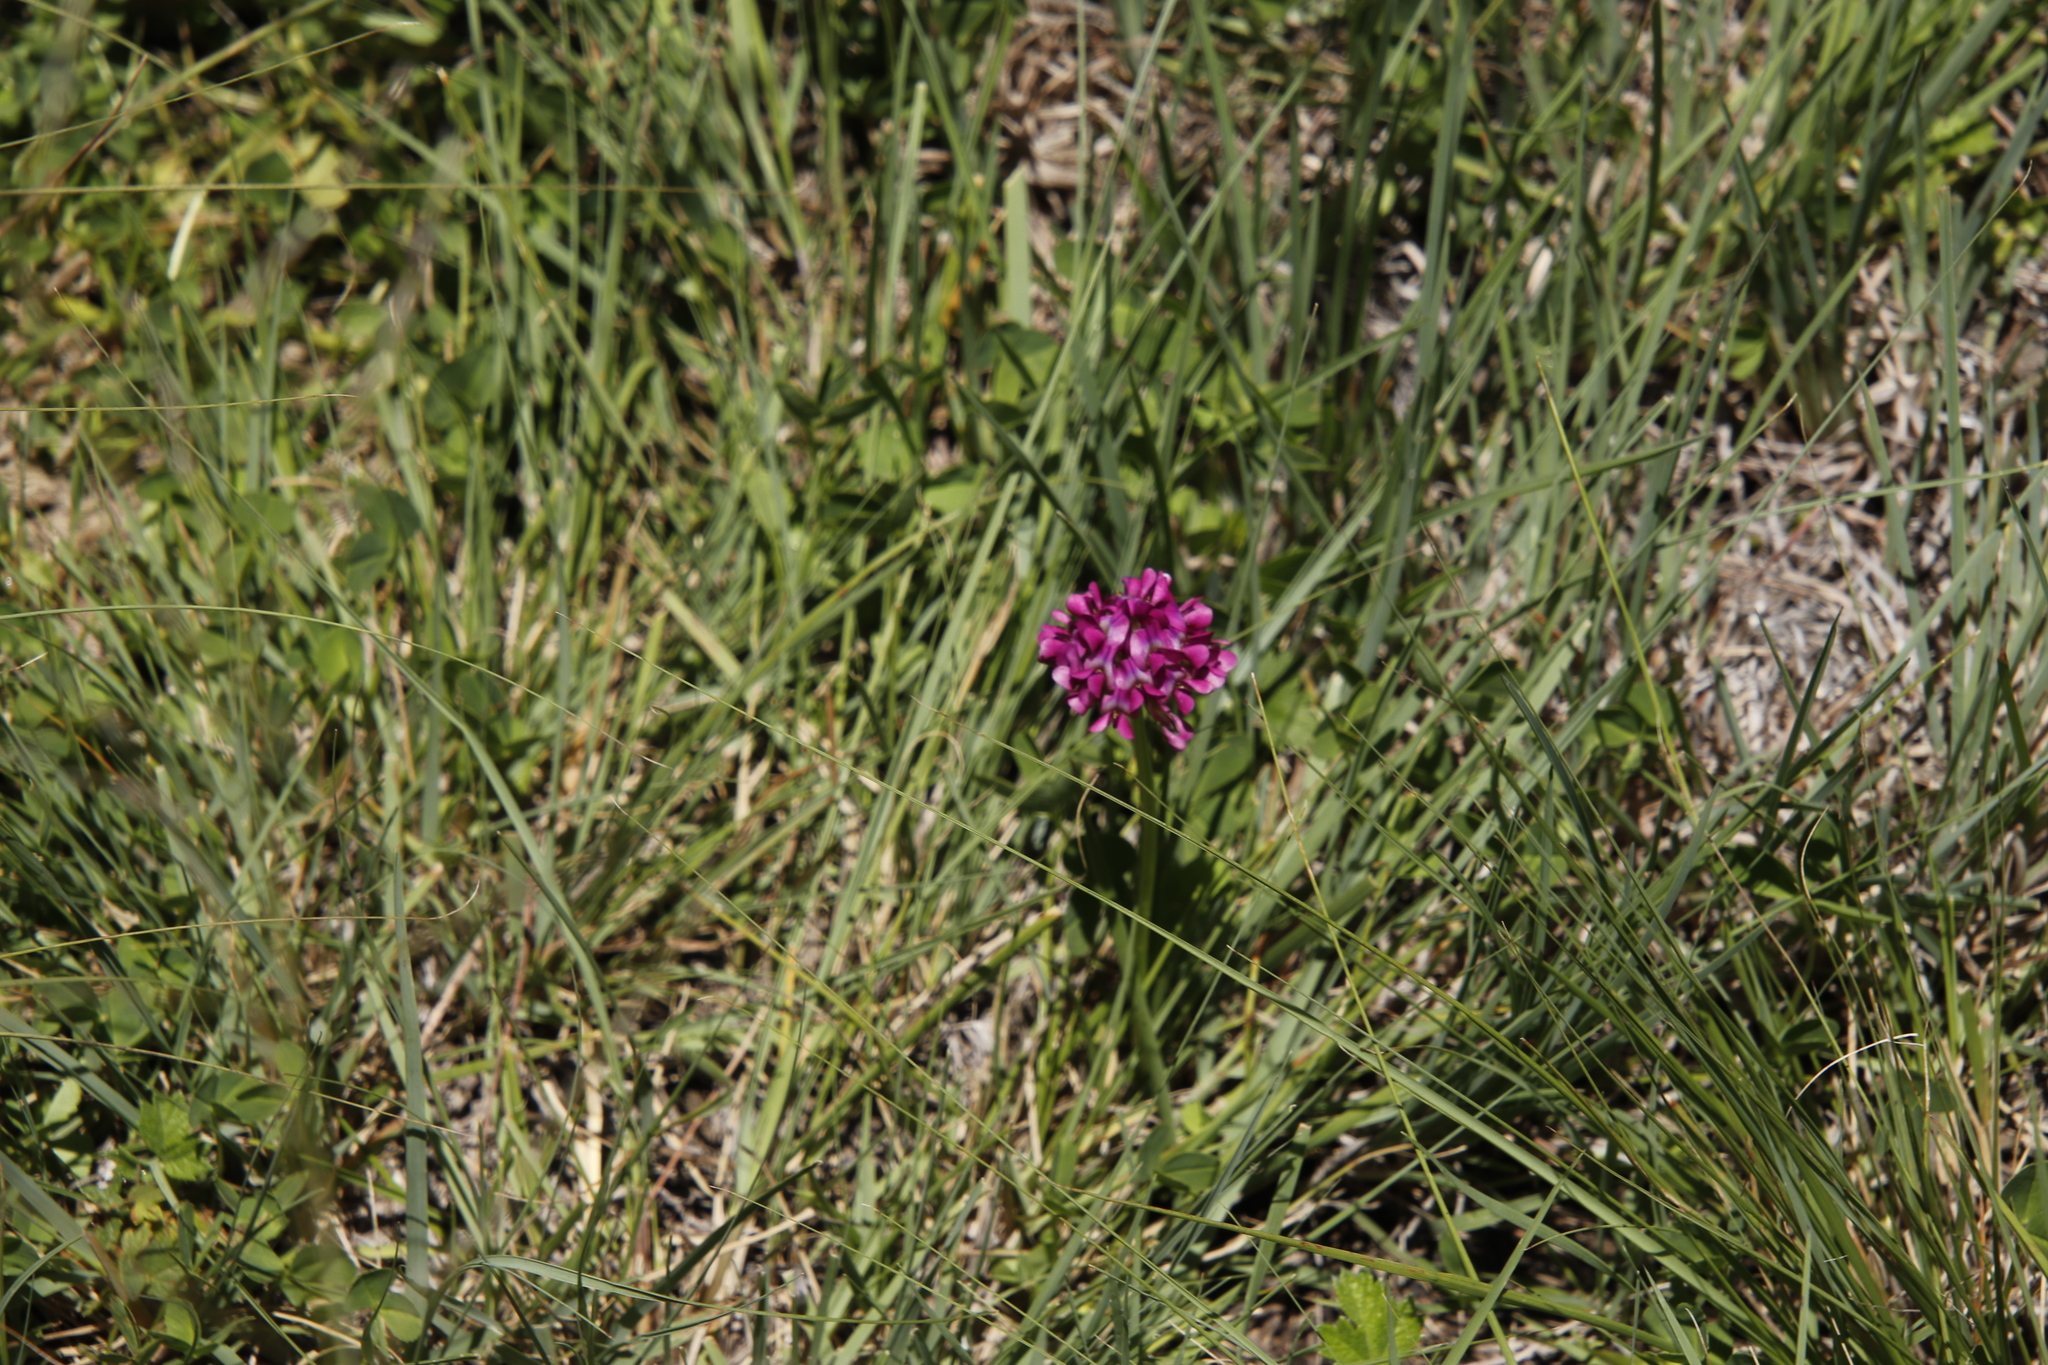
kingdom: Plantae
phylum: Tracheophyta
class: Magnoliopsida
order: Fabales
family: Fabaceae
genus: Trifolium
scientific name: Trifolium burchellianum
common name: Burchell's clover
